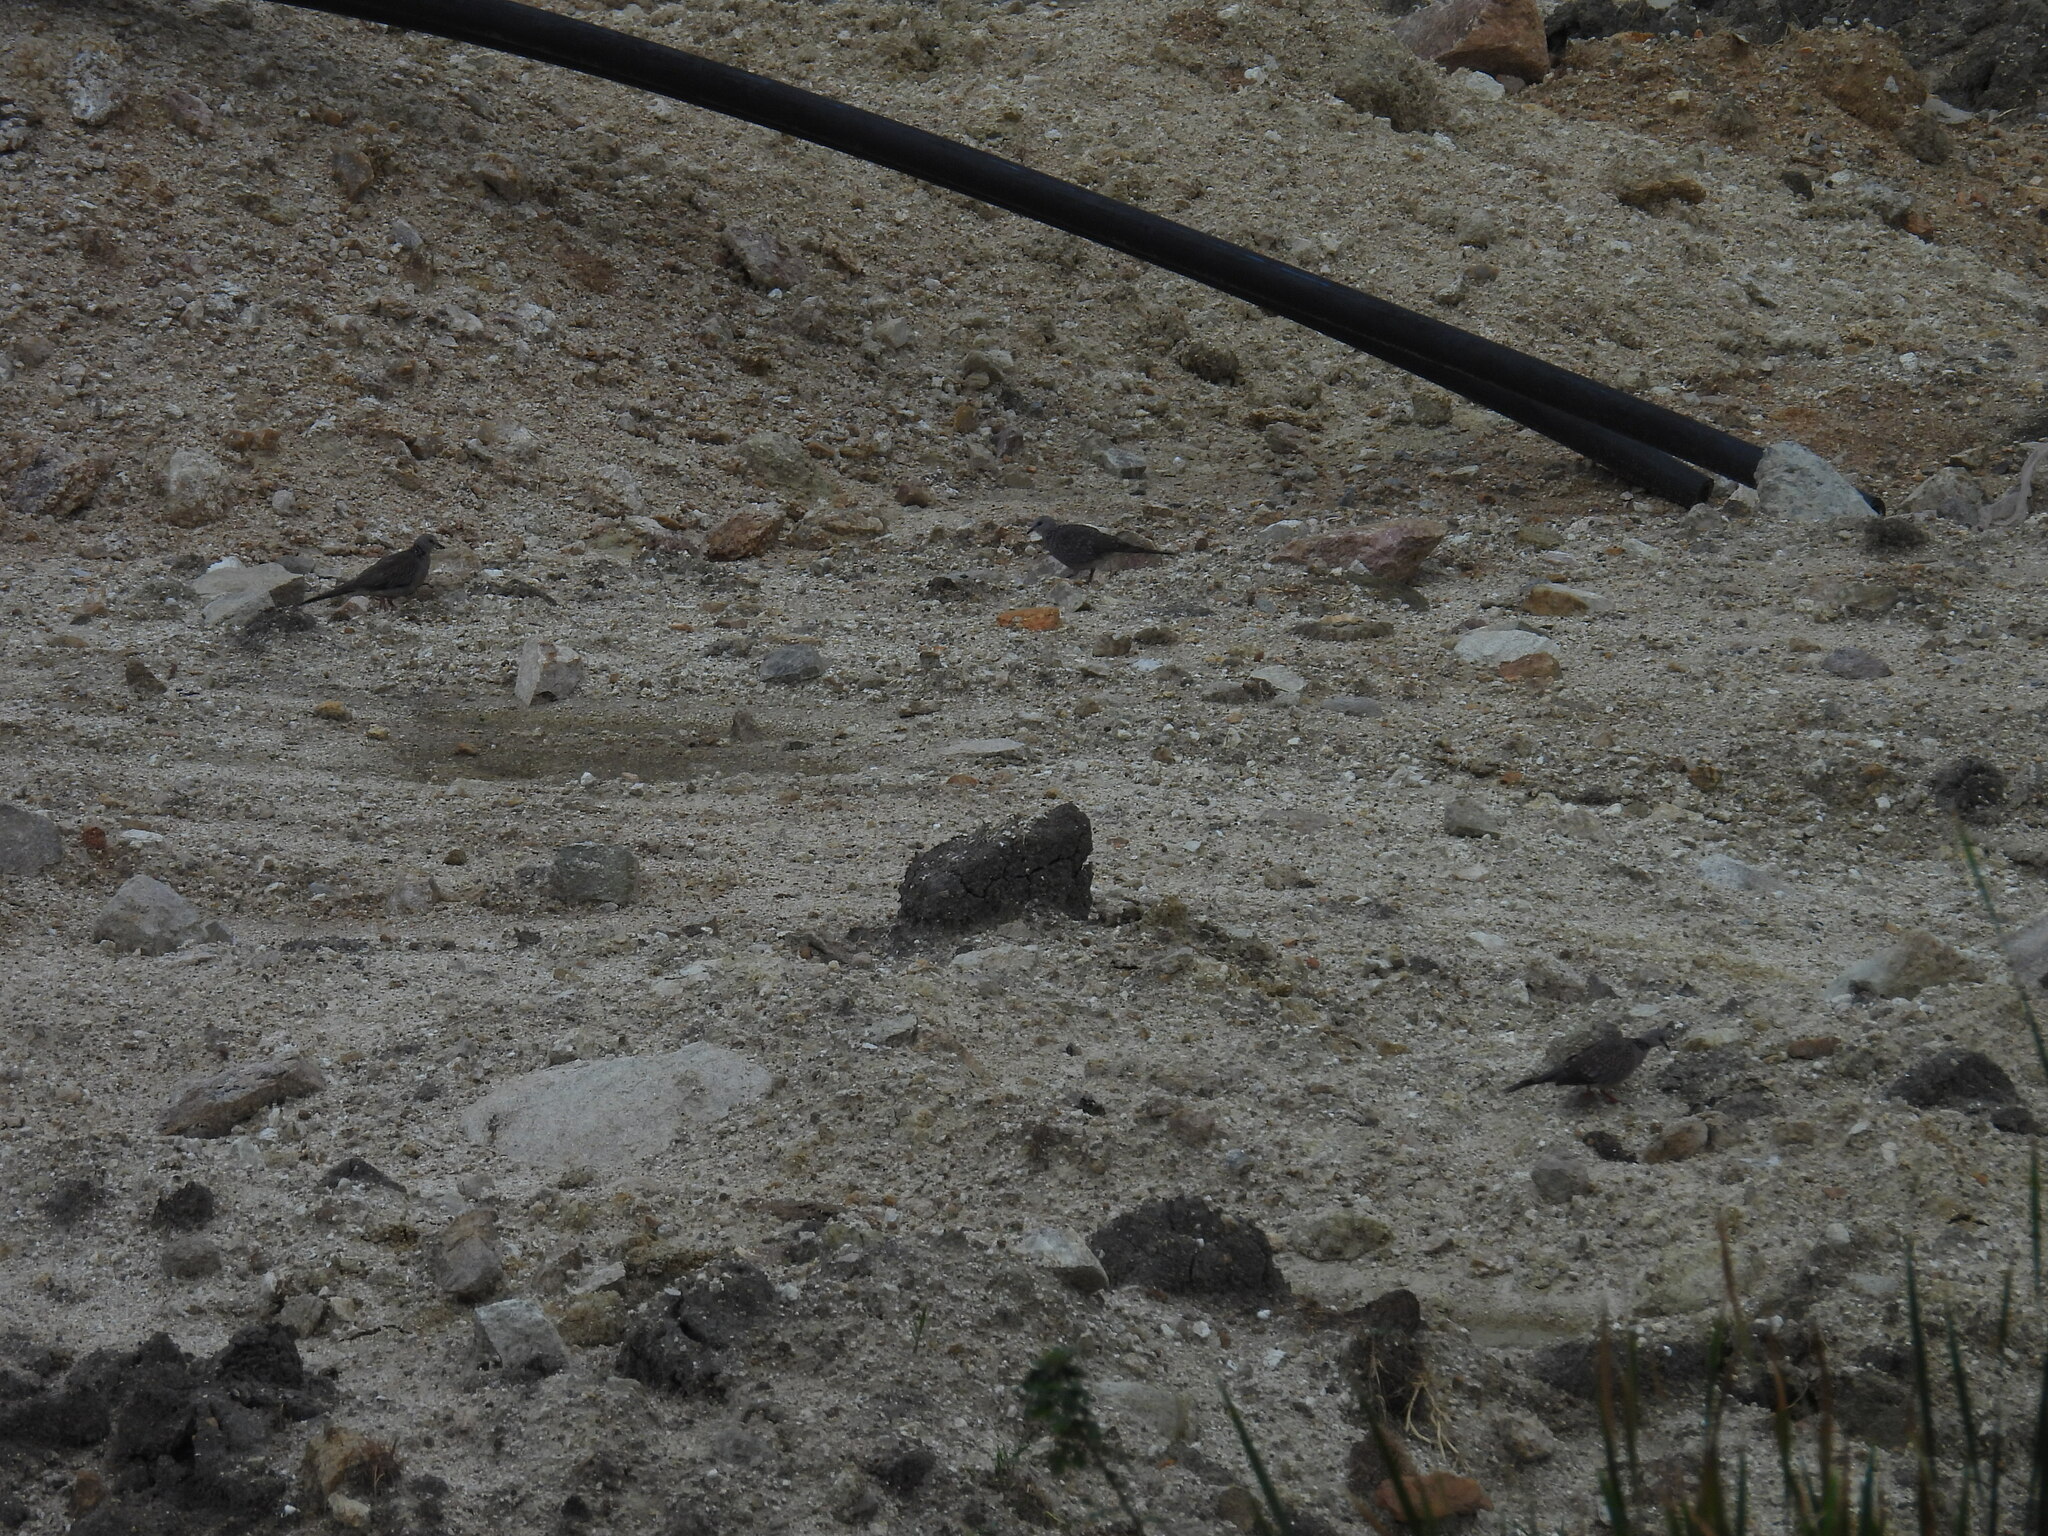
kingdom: Animalia
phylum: Chordata
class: Aves
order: Columbiformes
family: Columbidae
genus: Spilopelia
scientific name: Spilopelia chinensis
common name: Spotted dove
